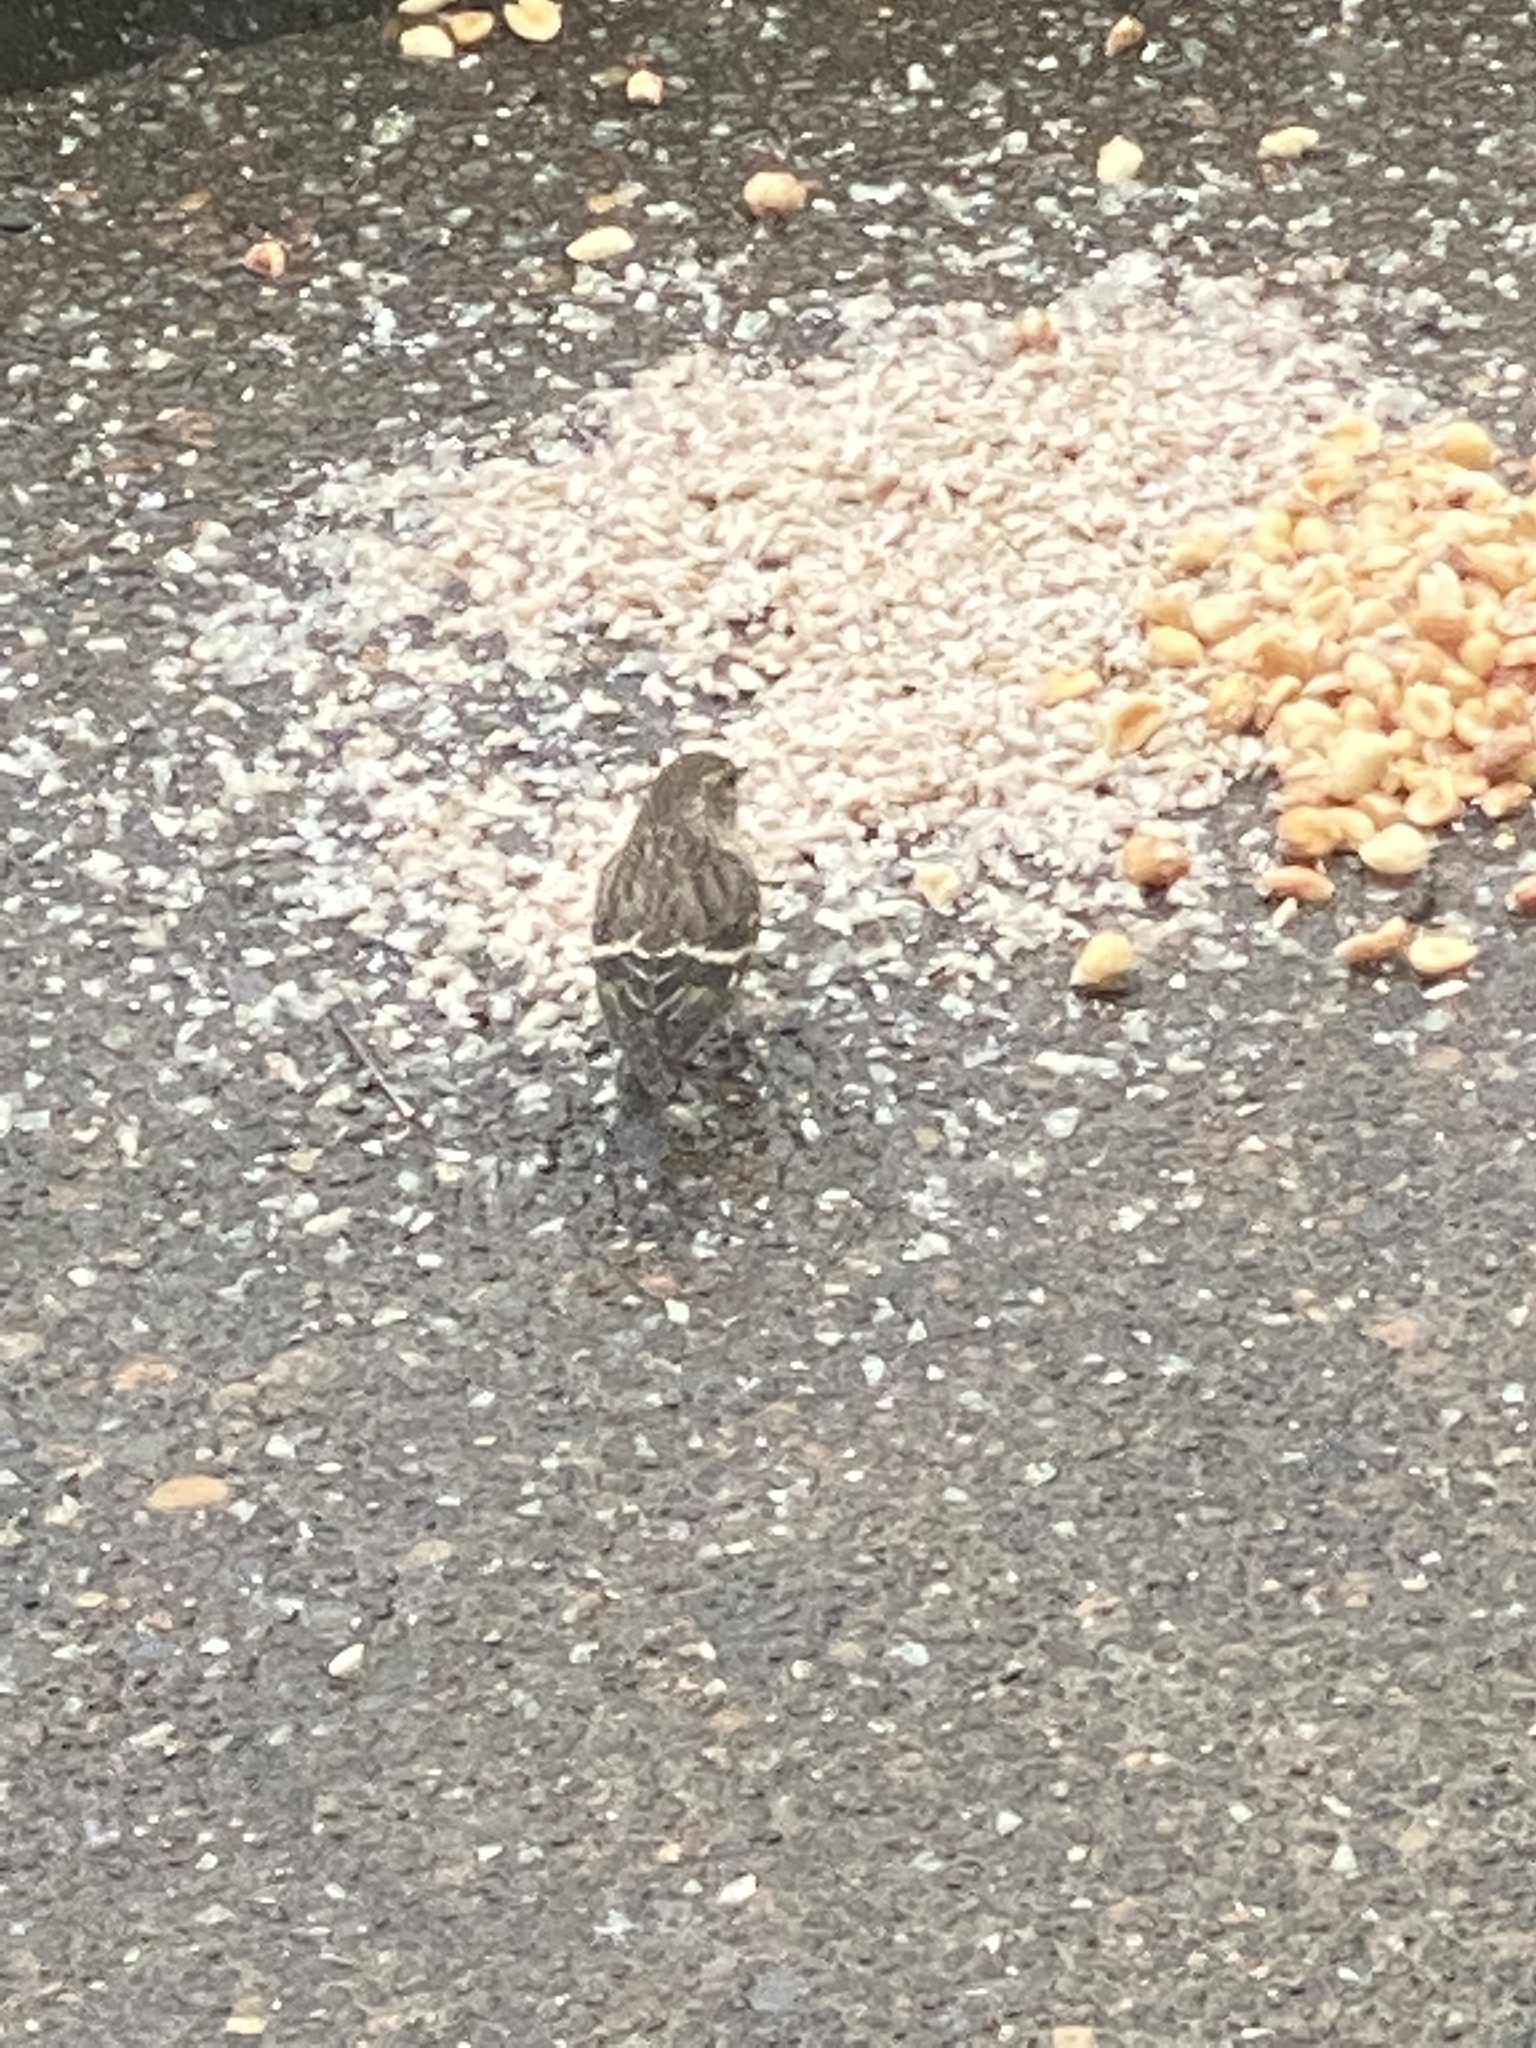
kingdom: Animalia
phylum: Chordata
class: Aves
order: Passeriformes
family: Fringillidae
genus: Spinus
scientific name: Spinus pinus
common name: Pine siskin
